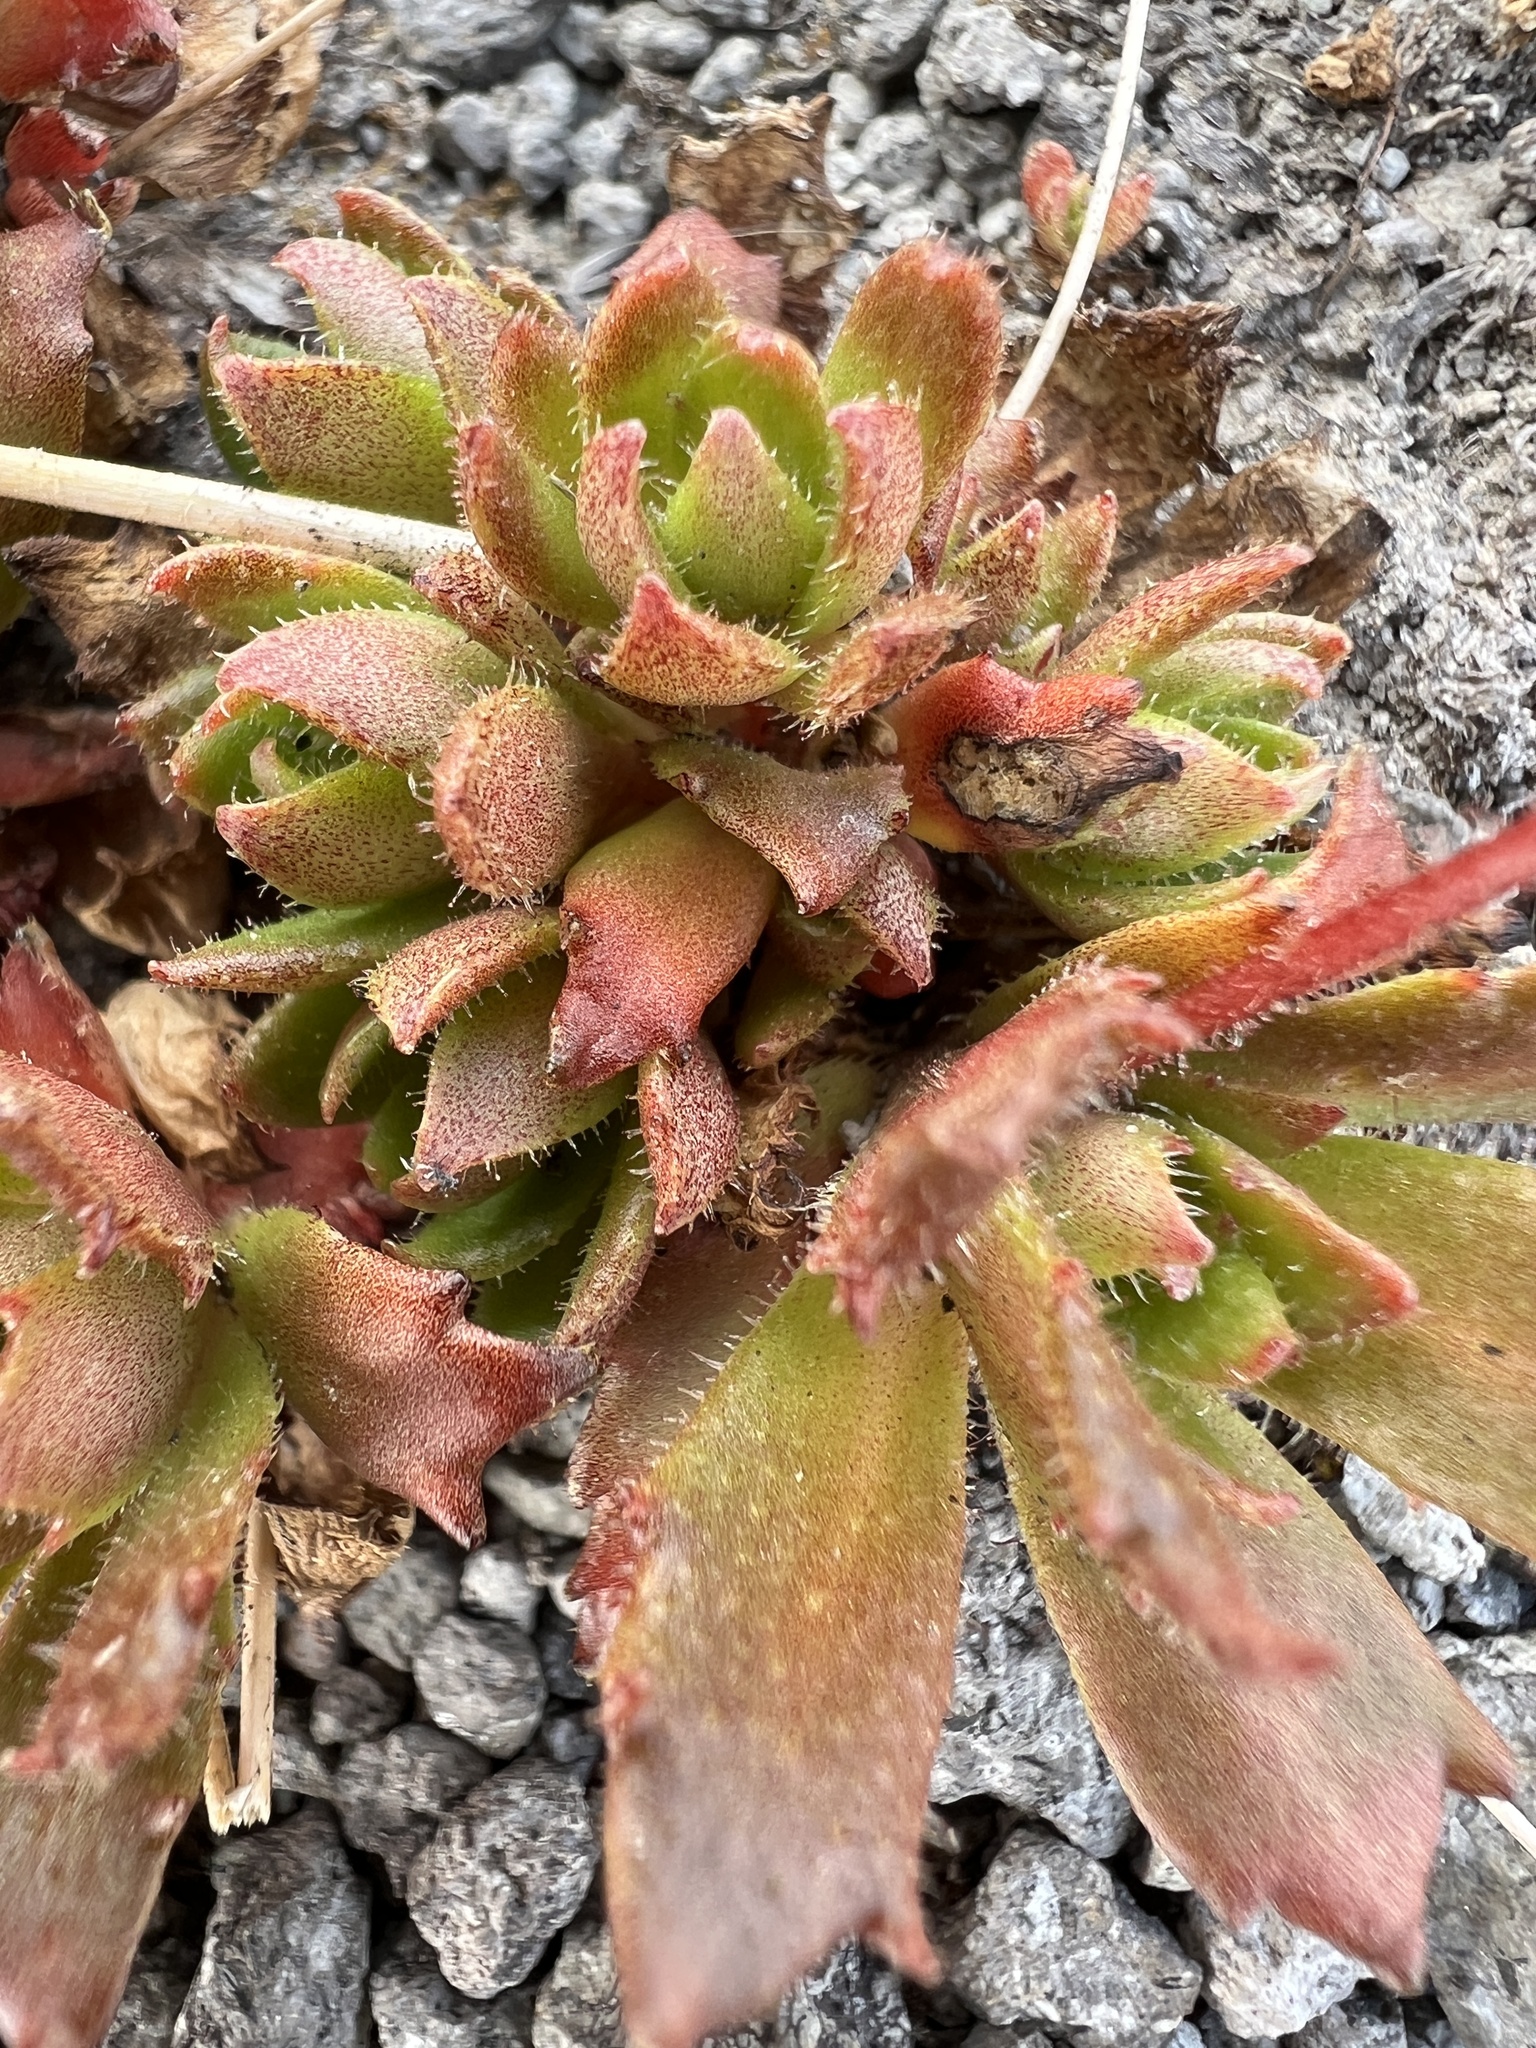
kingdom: Plantae
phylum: Tracheophyta
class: Magnoliopsida
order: Saxifragales
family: Saxifragaceae
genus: Micranthes
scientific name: Micranthes ferruginea
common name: Rusty saxifrage
